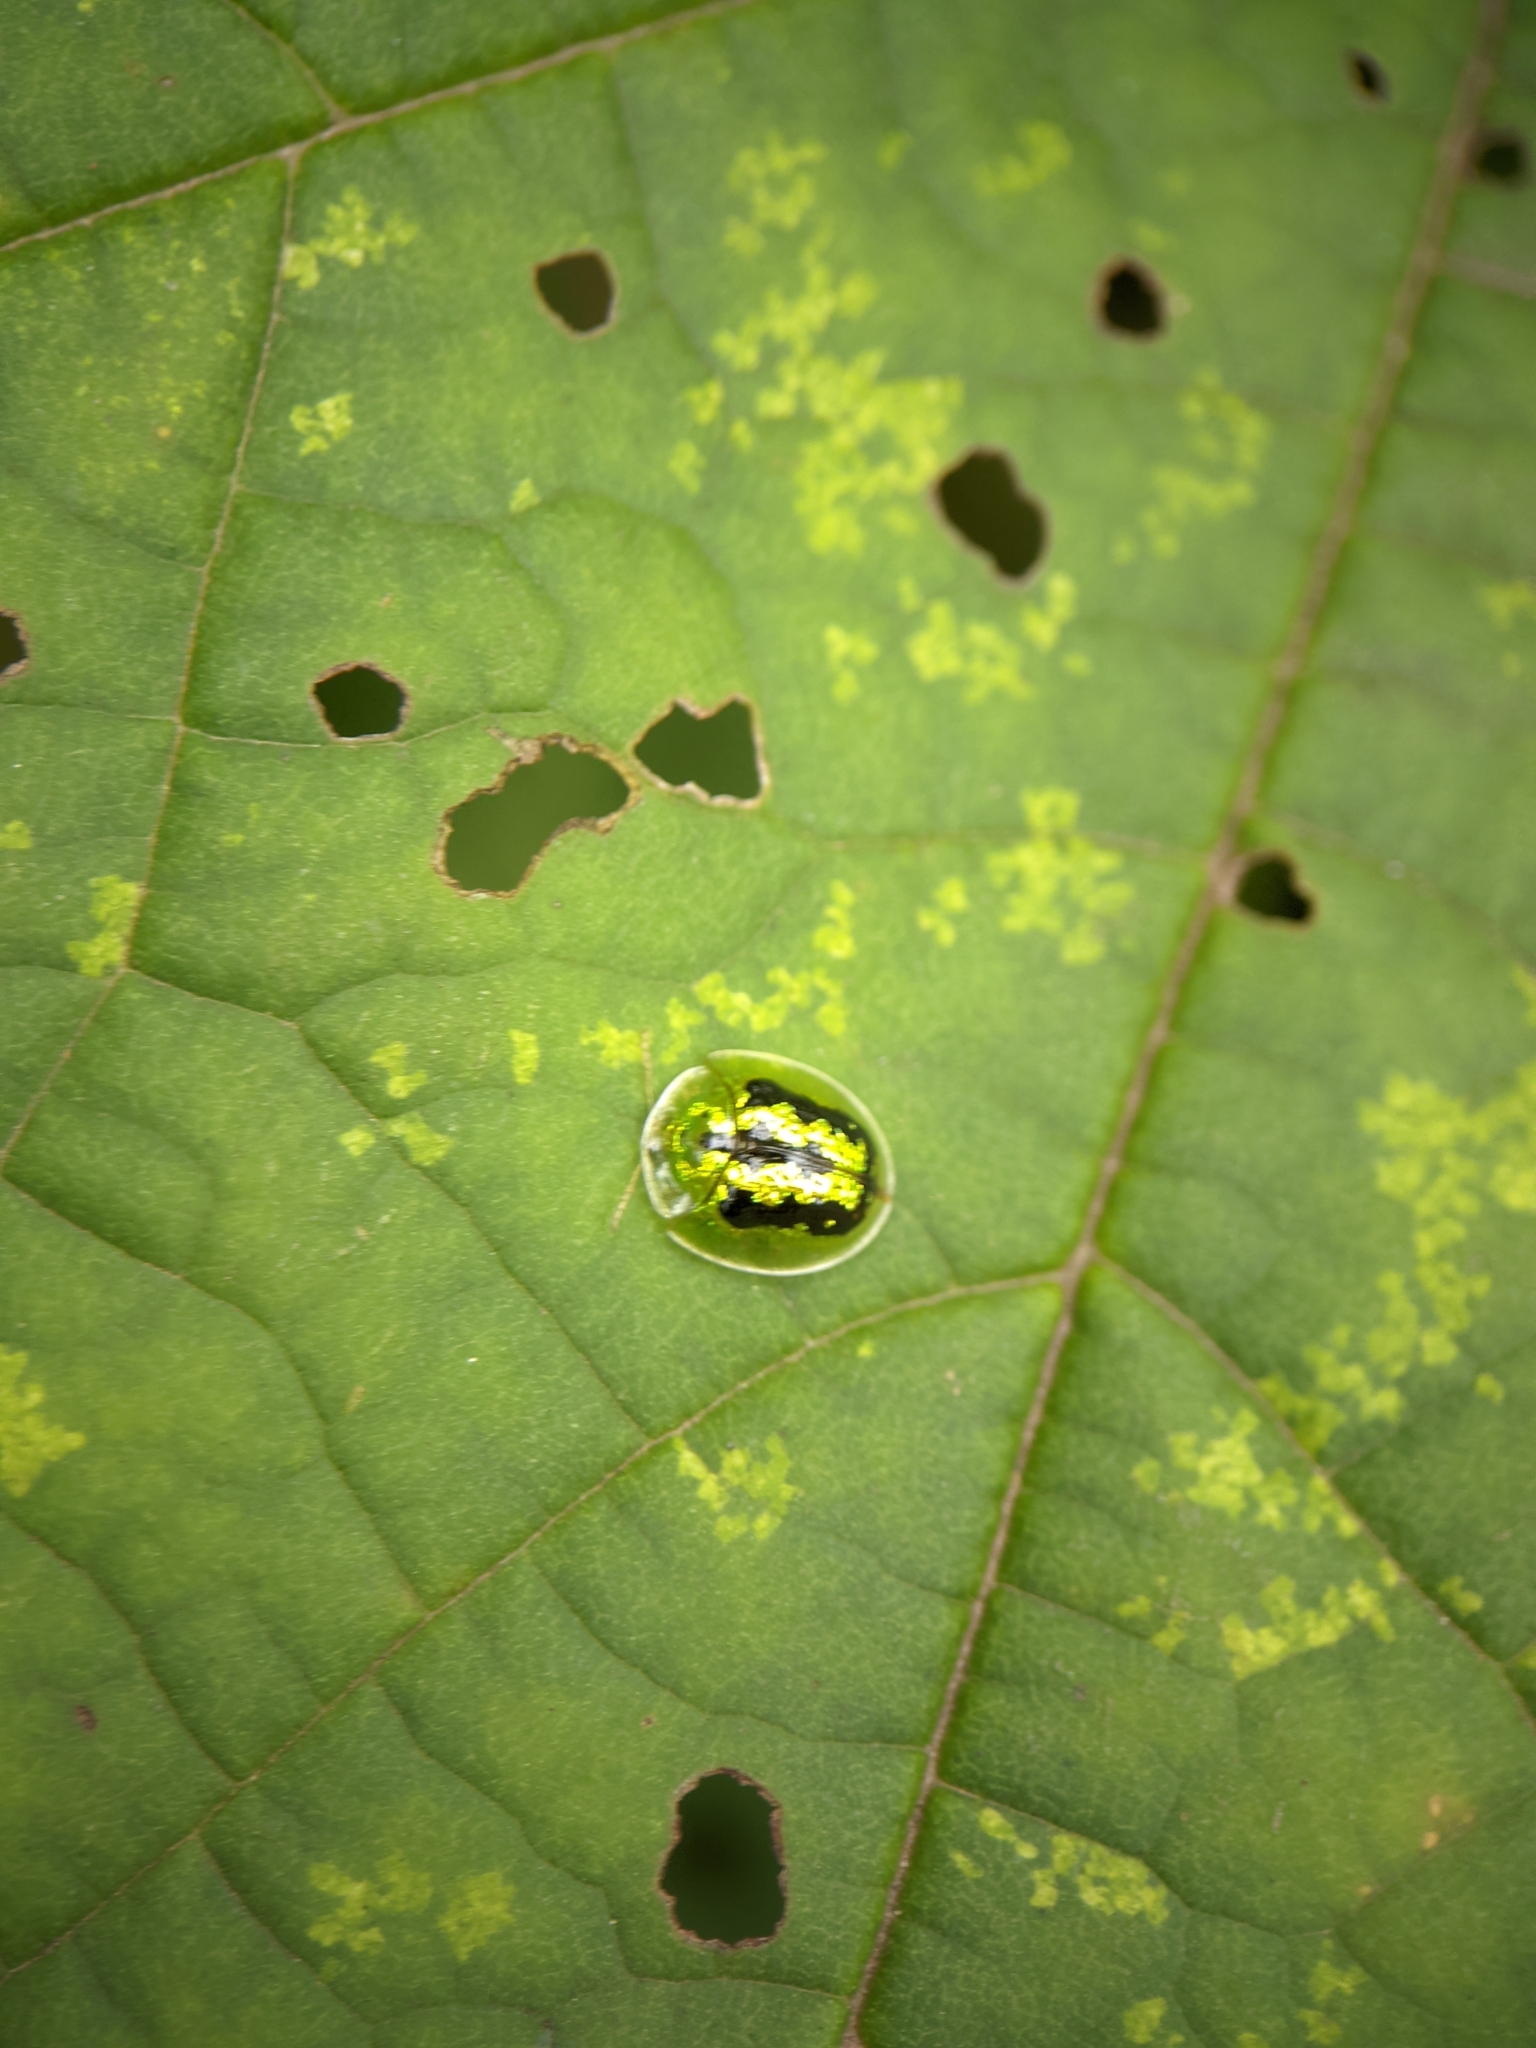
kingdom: Animalia
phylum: Arthropoda
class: Insecta
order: Coleoptera
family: Chrysomelidae
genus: Cassida
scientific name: Cassida circumdata
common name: Tortoise beetle
